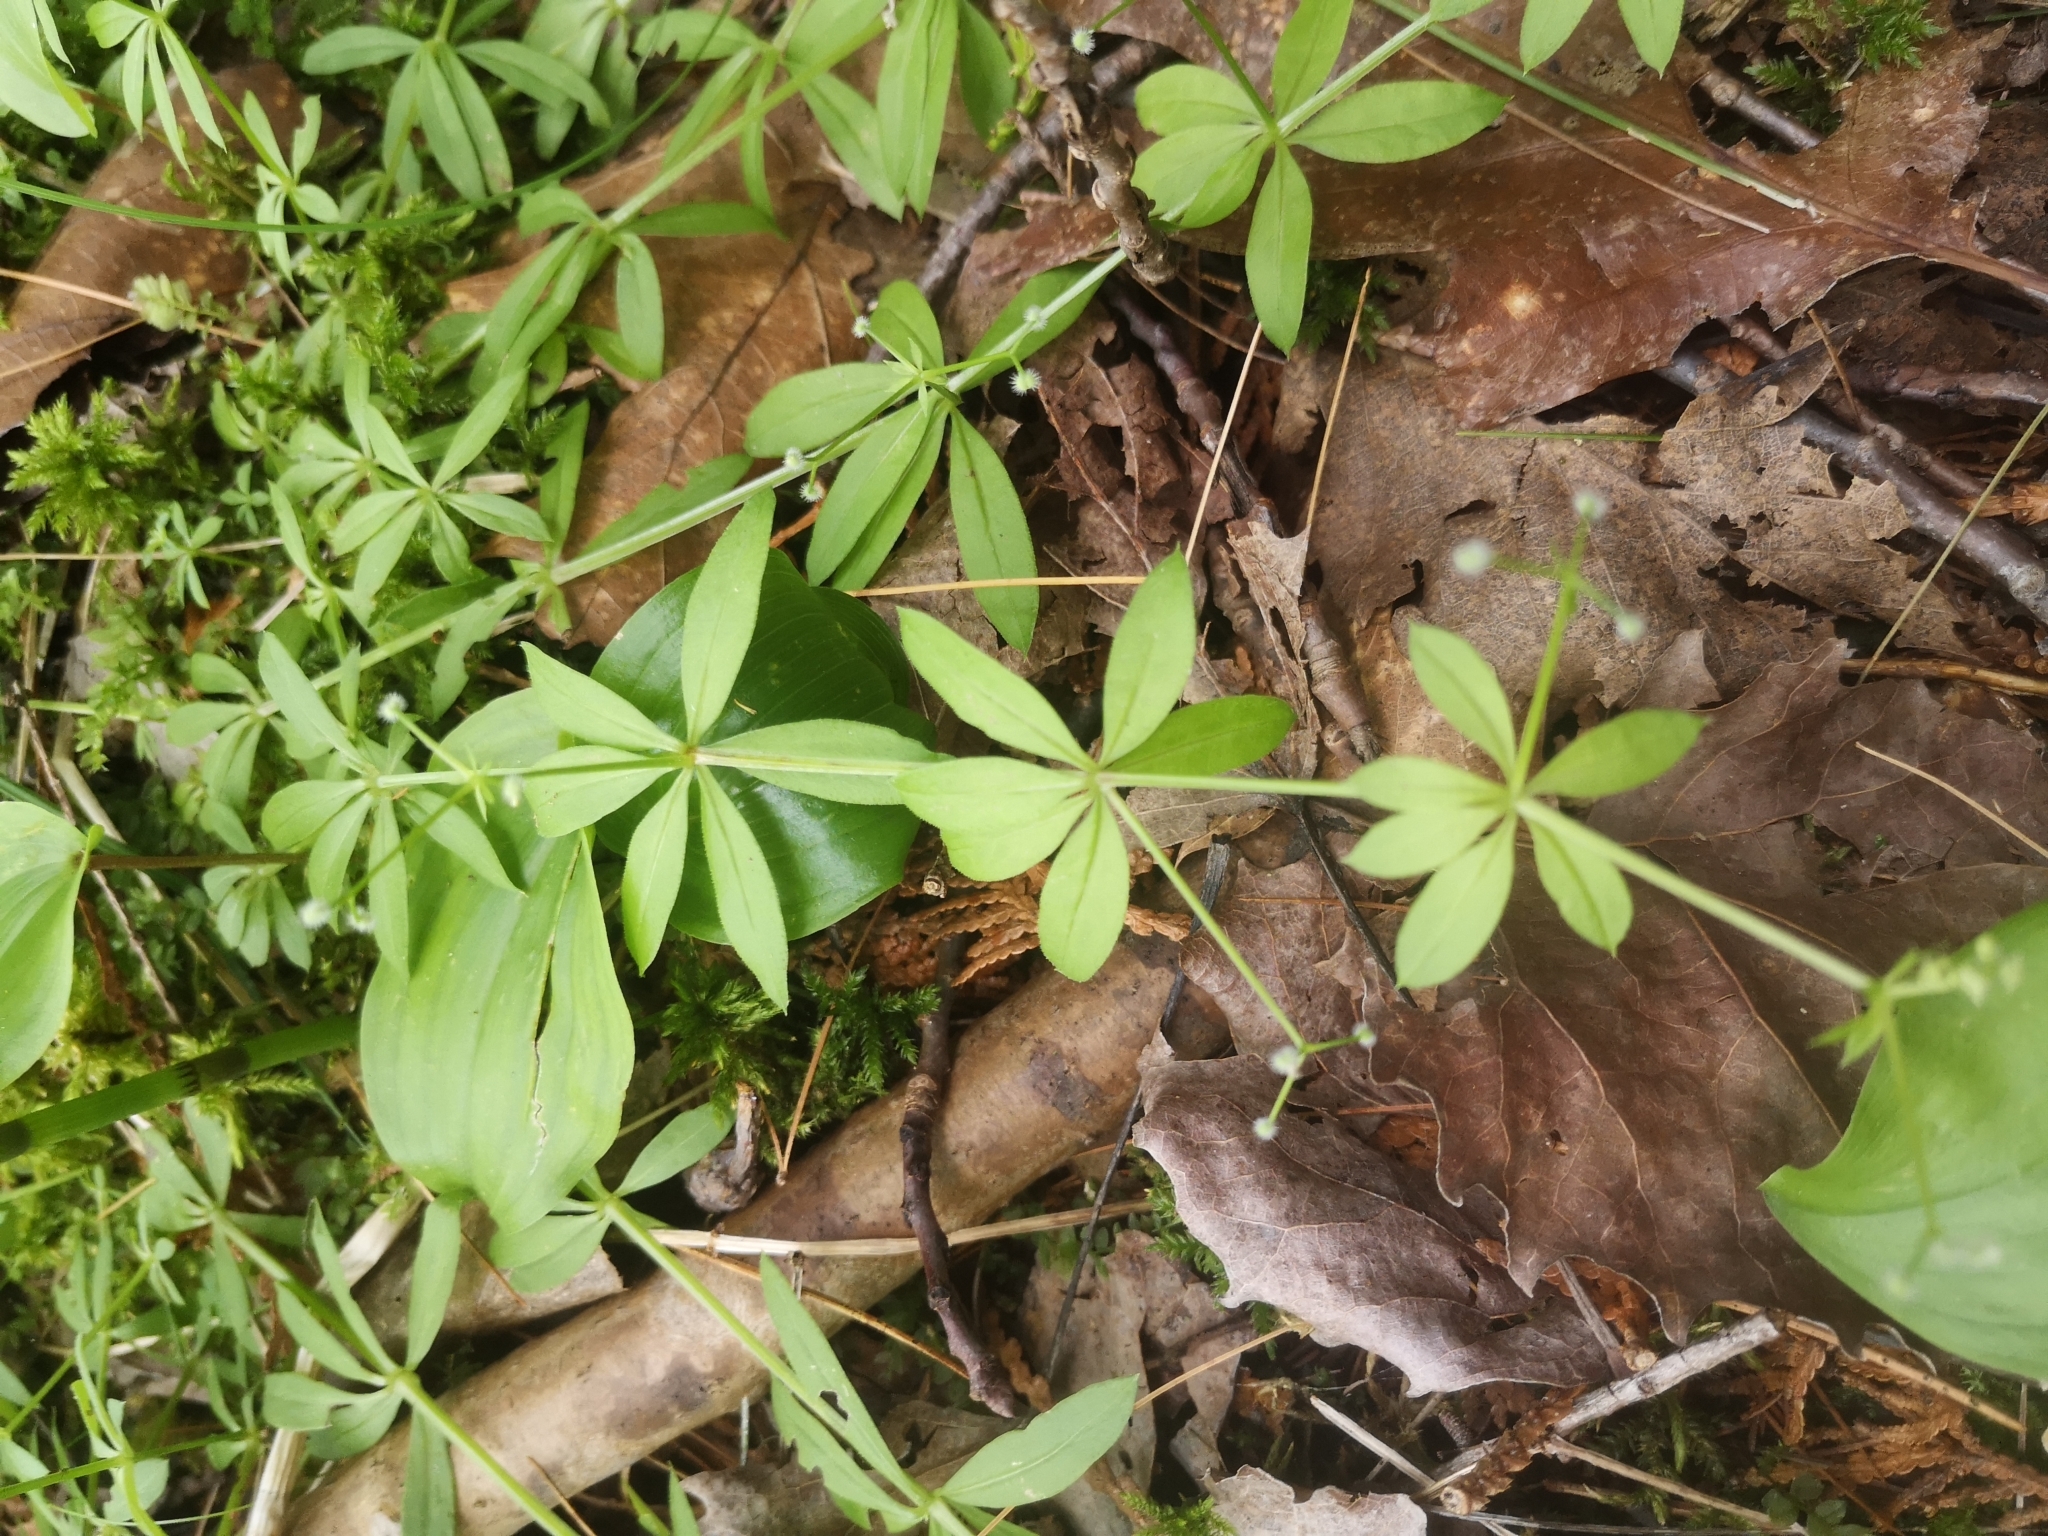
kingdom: Plantae
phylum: Tracheophyta
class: Magnoliopsida
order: Gentianales
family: Rubiaceae
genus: Galium
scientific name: Galium triflorum
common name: Fragrant bedstraw
